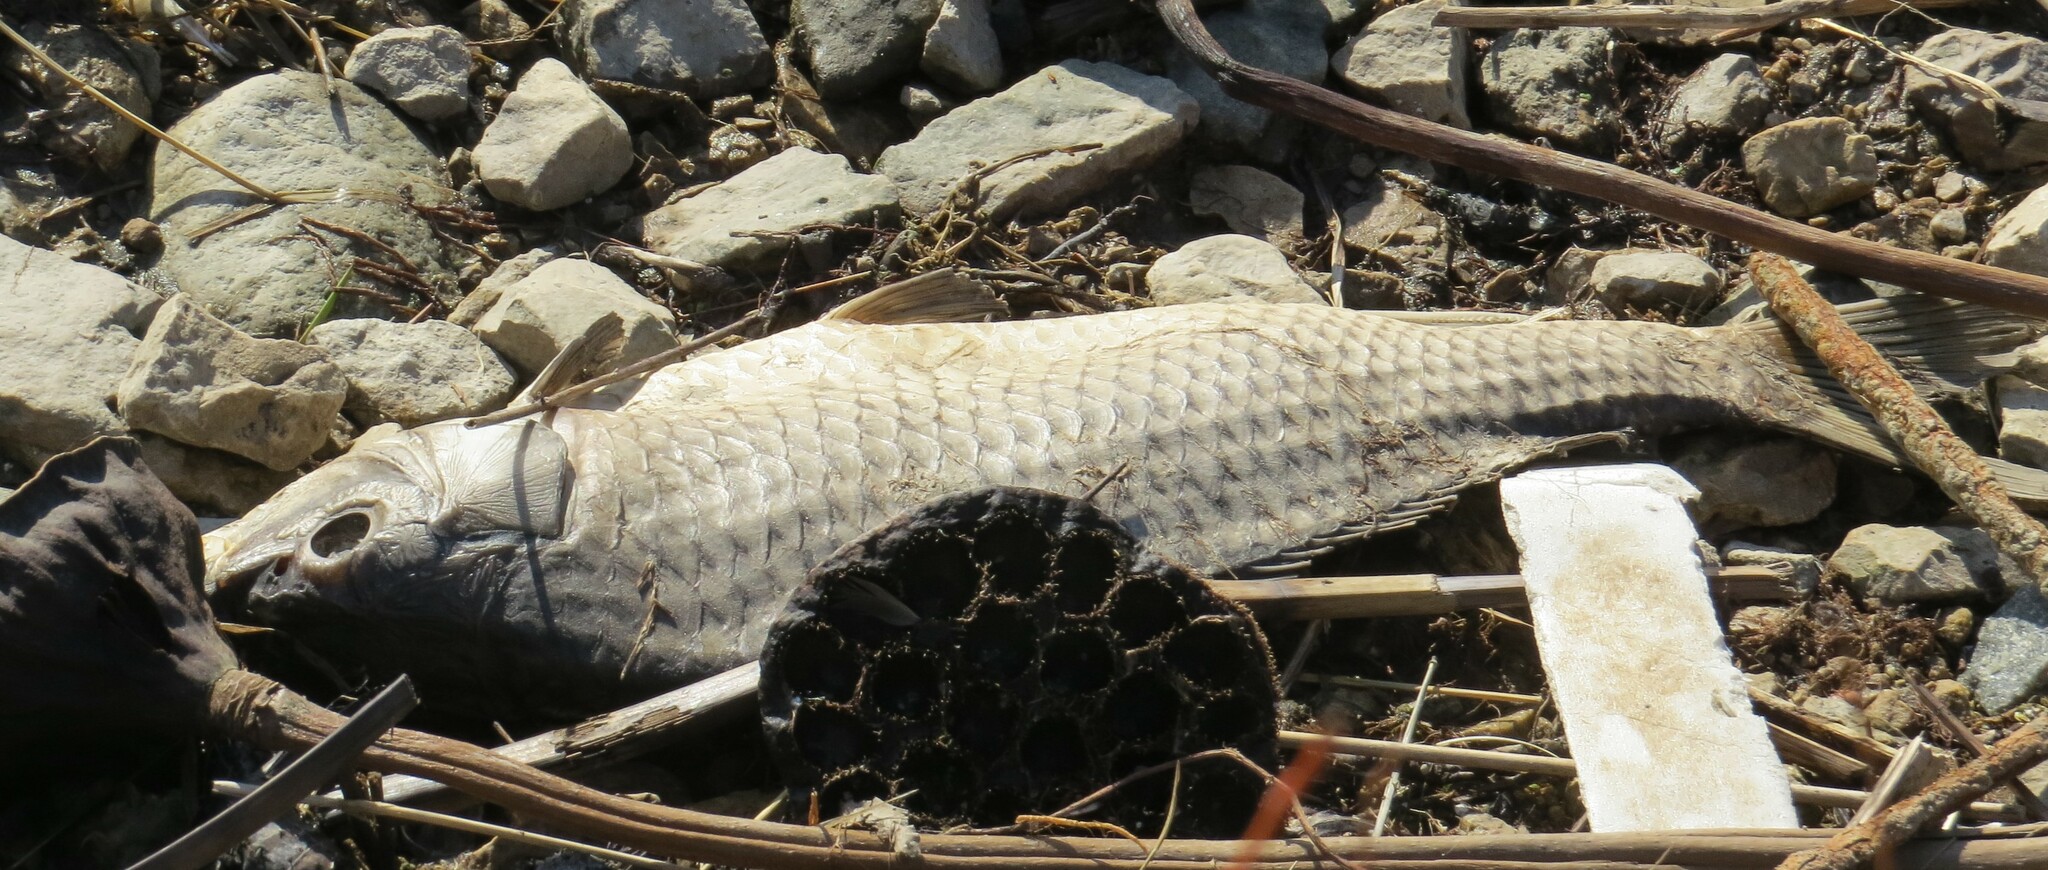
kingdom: Animalia
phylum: Chordata
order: Cypriniformes
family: Cyprinidae
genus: Cyprinus
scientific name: Cyprinus carpio
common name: Common carp
